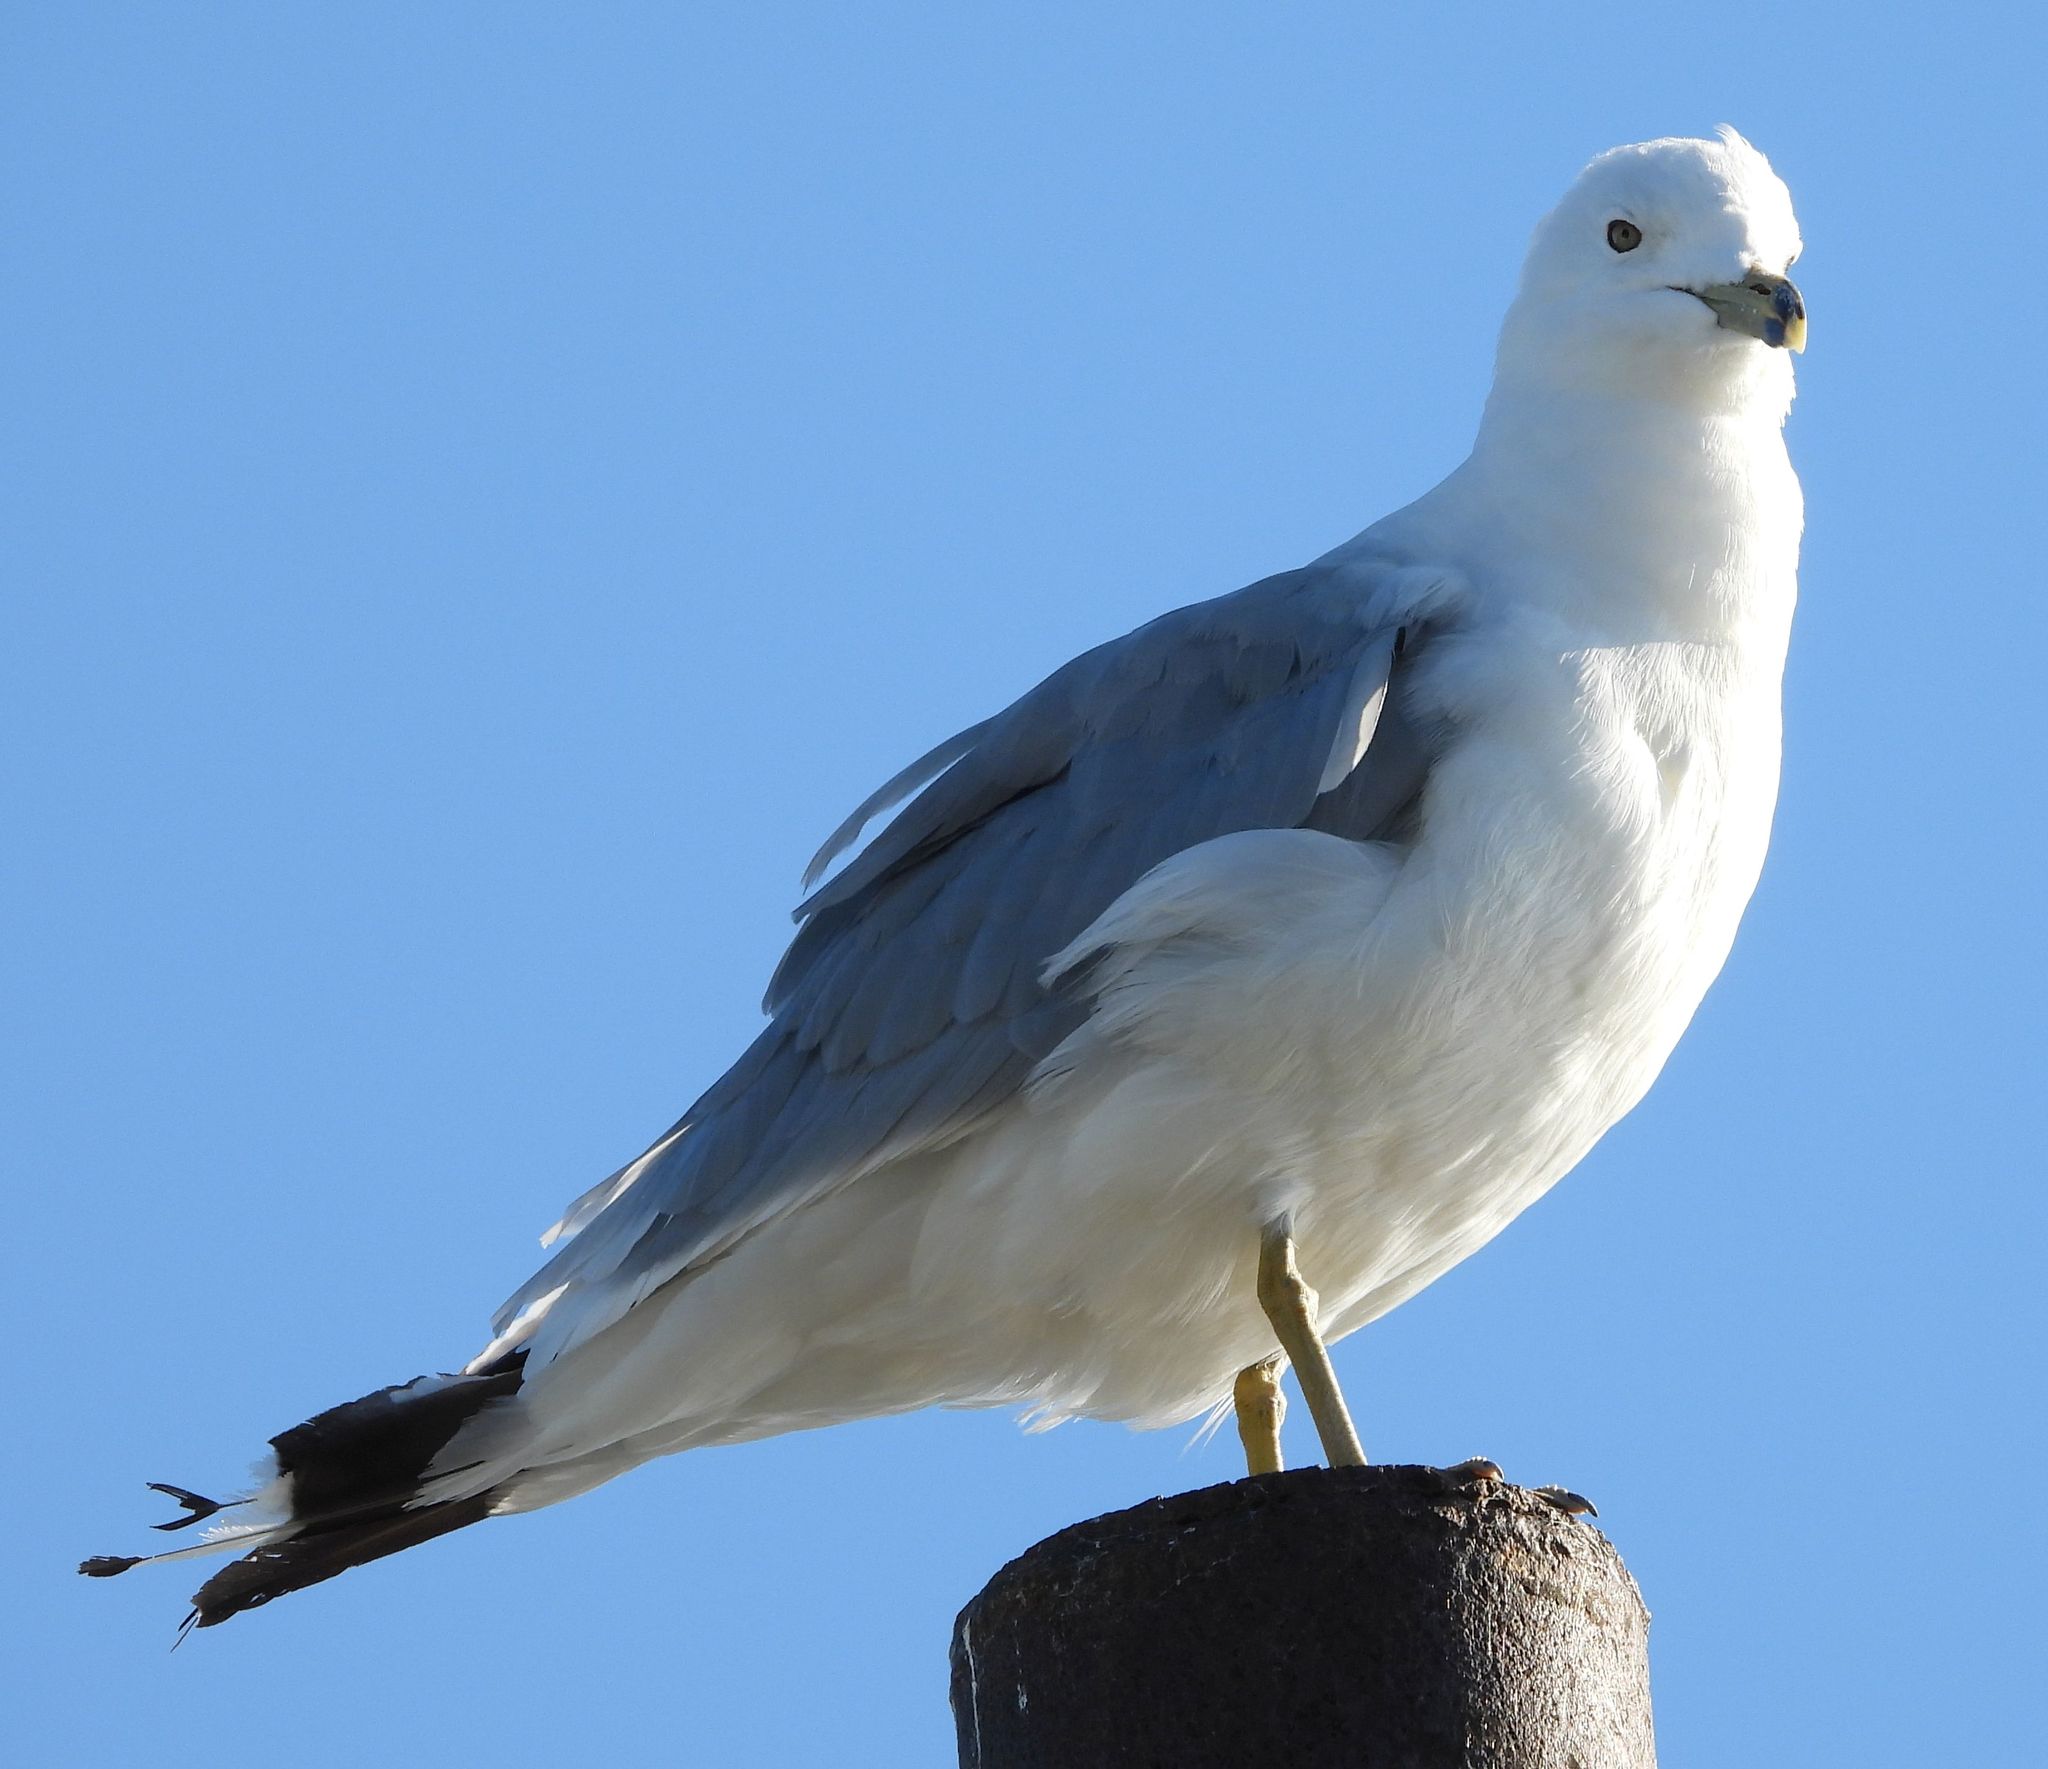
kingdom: Animalia
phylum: Chordata
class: Aves
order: Charadriiformes
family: Laridae
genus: Larus
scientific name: Larus delawarensis
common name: Ring-billed gull
